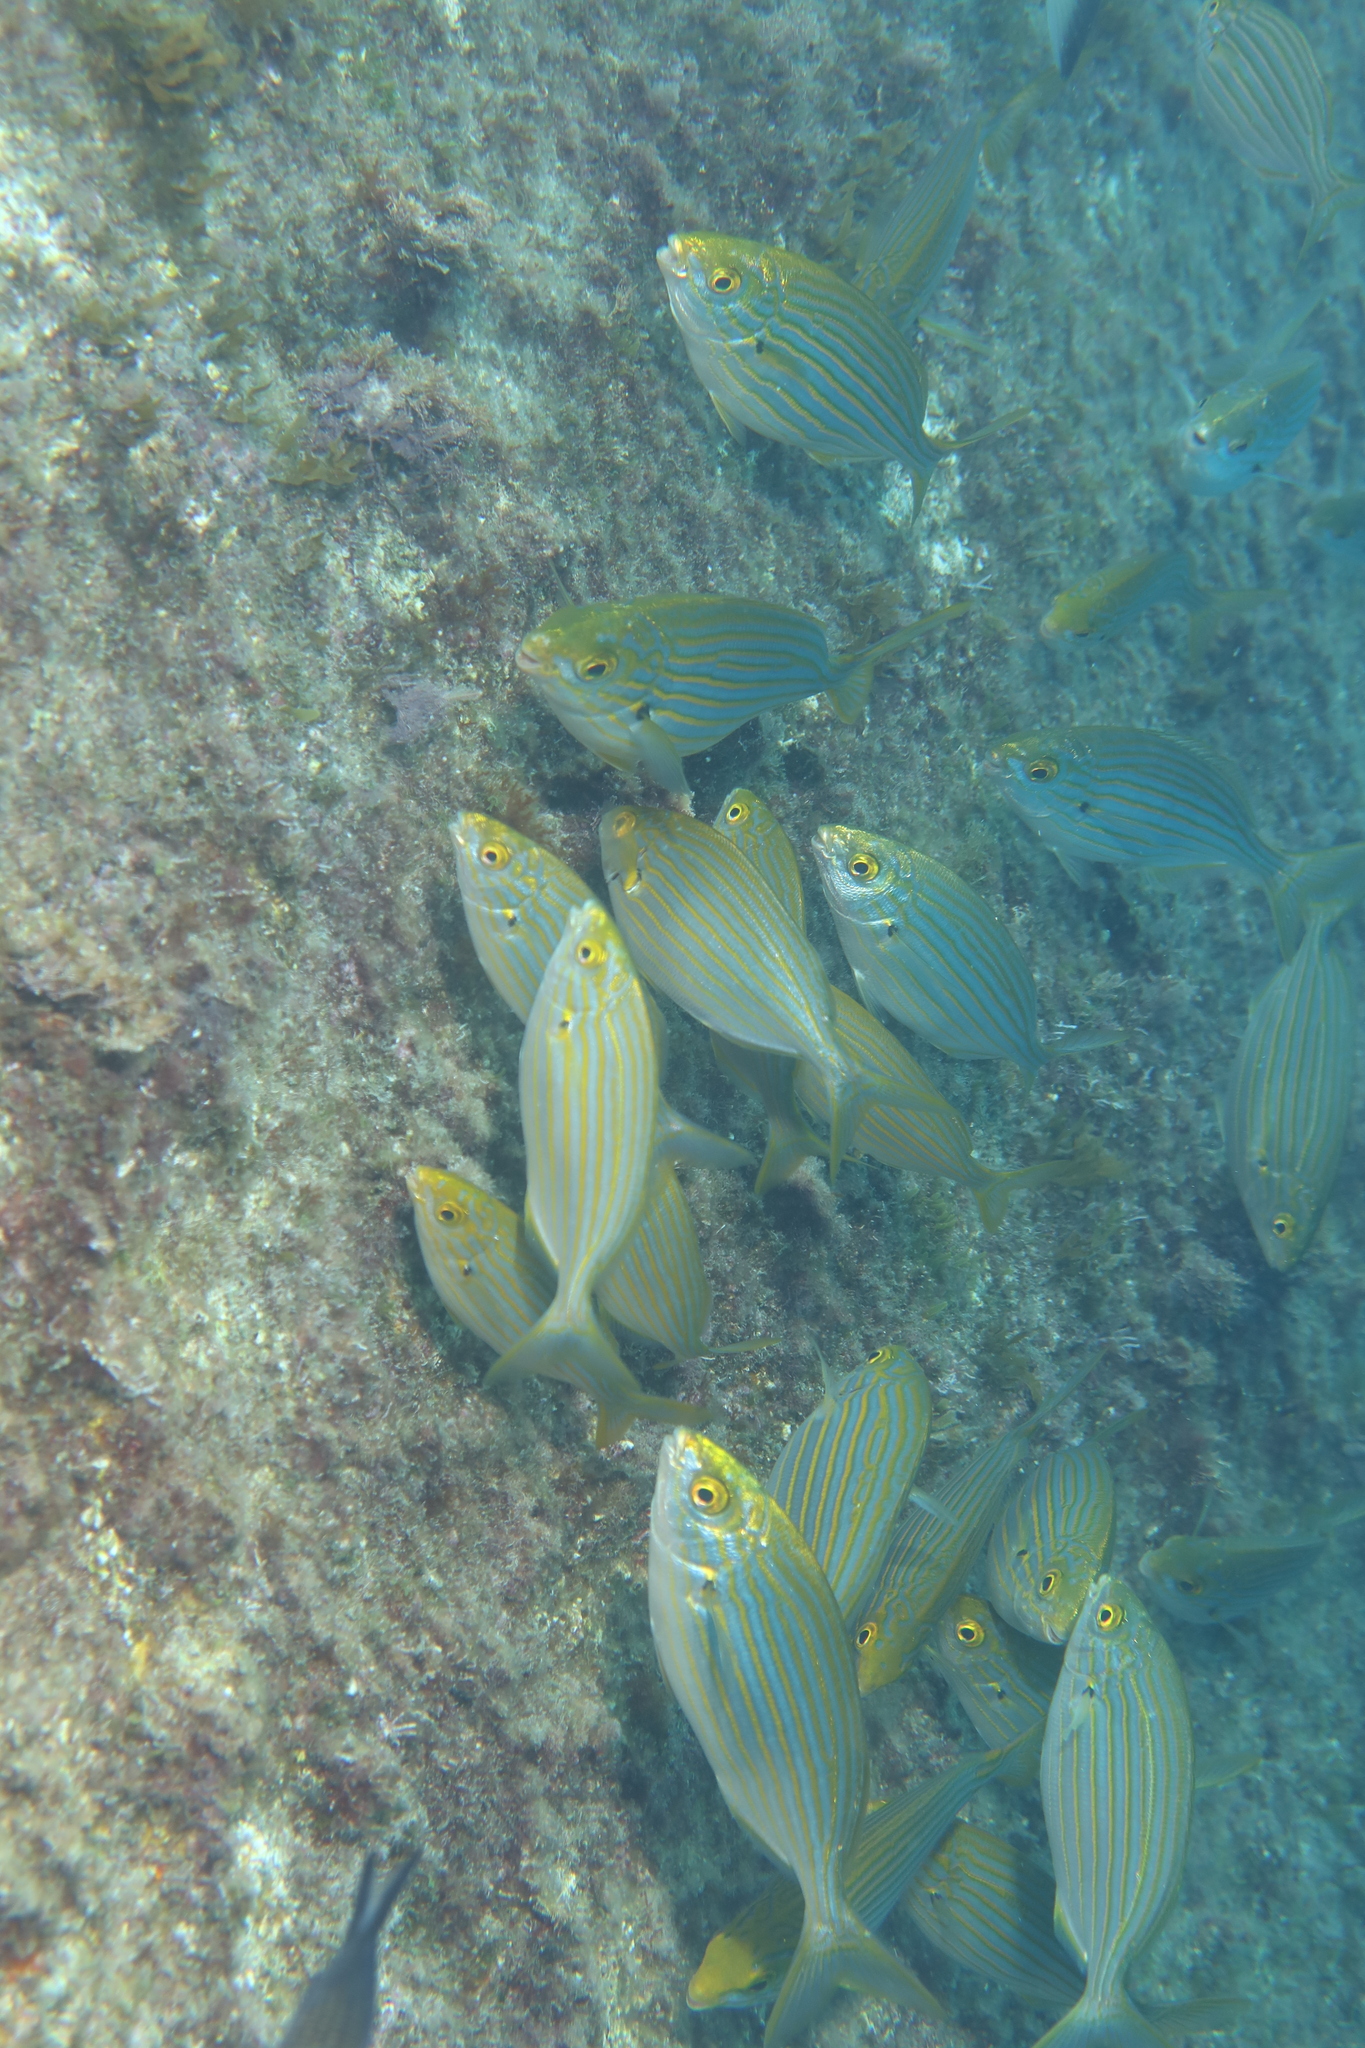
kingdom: Animalia
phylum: Chordata
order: Perciformes
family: Sparidae
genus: Sarpa
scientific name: Sarpa salpa
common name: Salema
